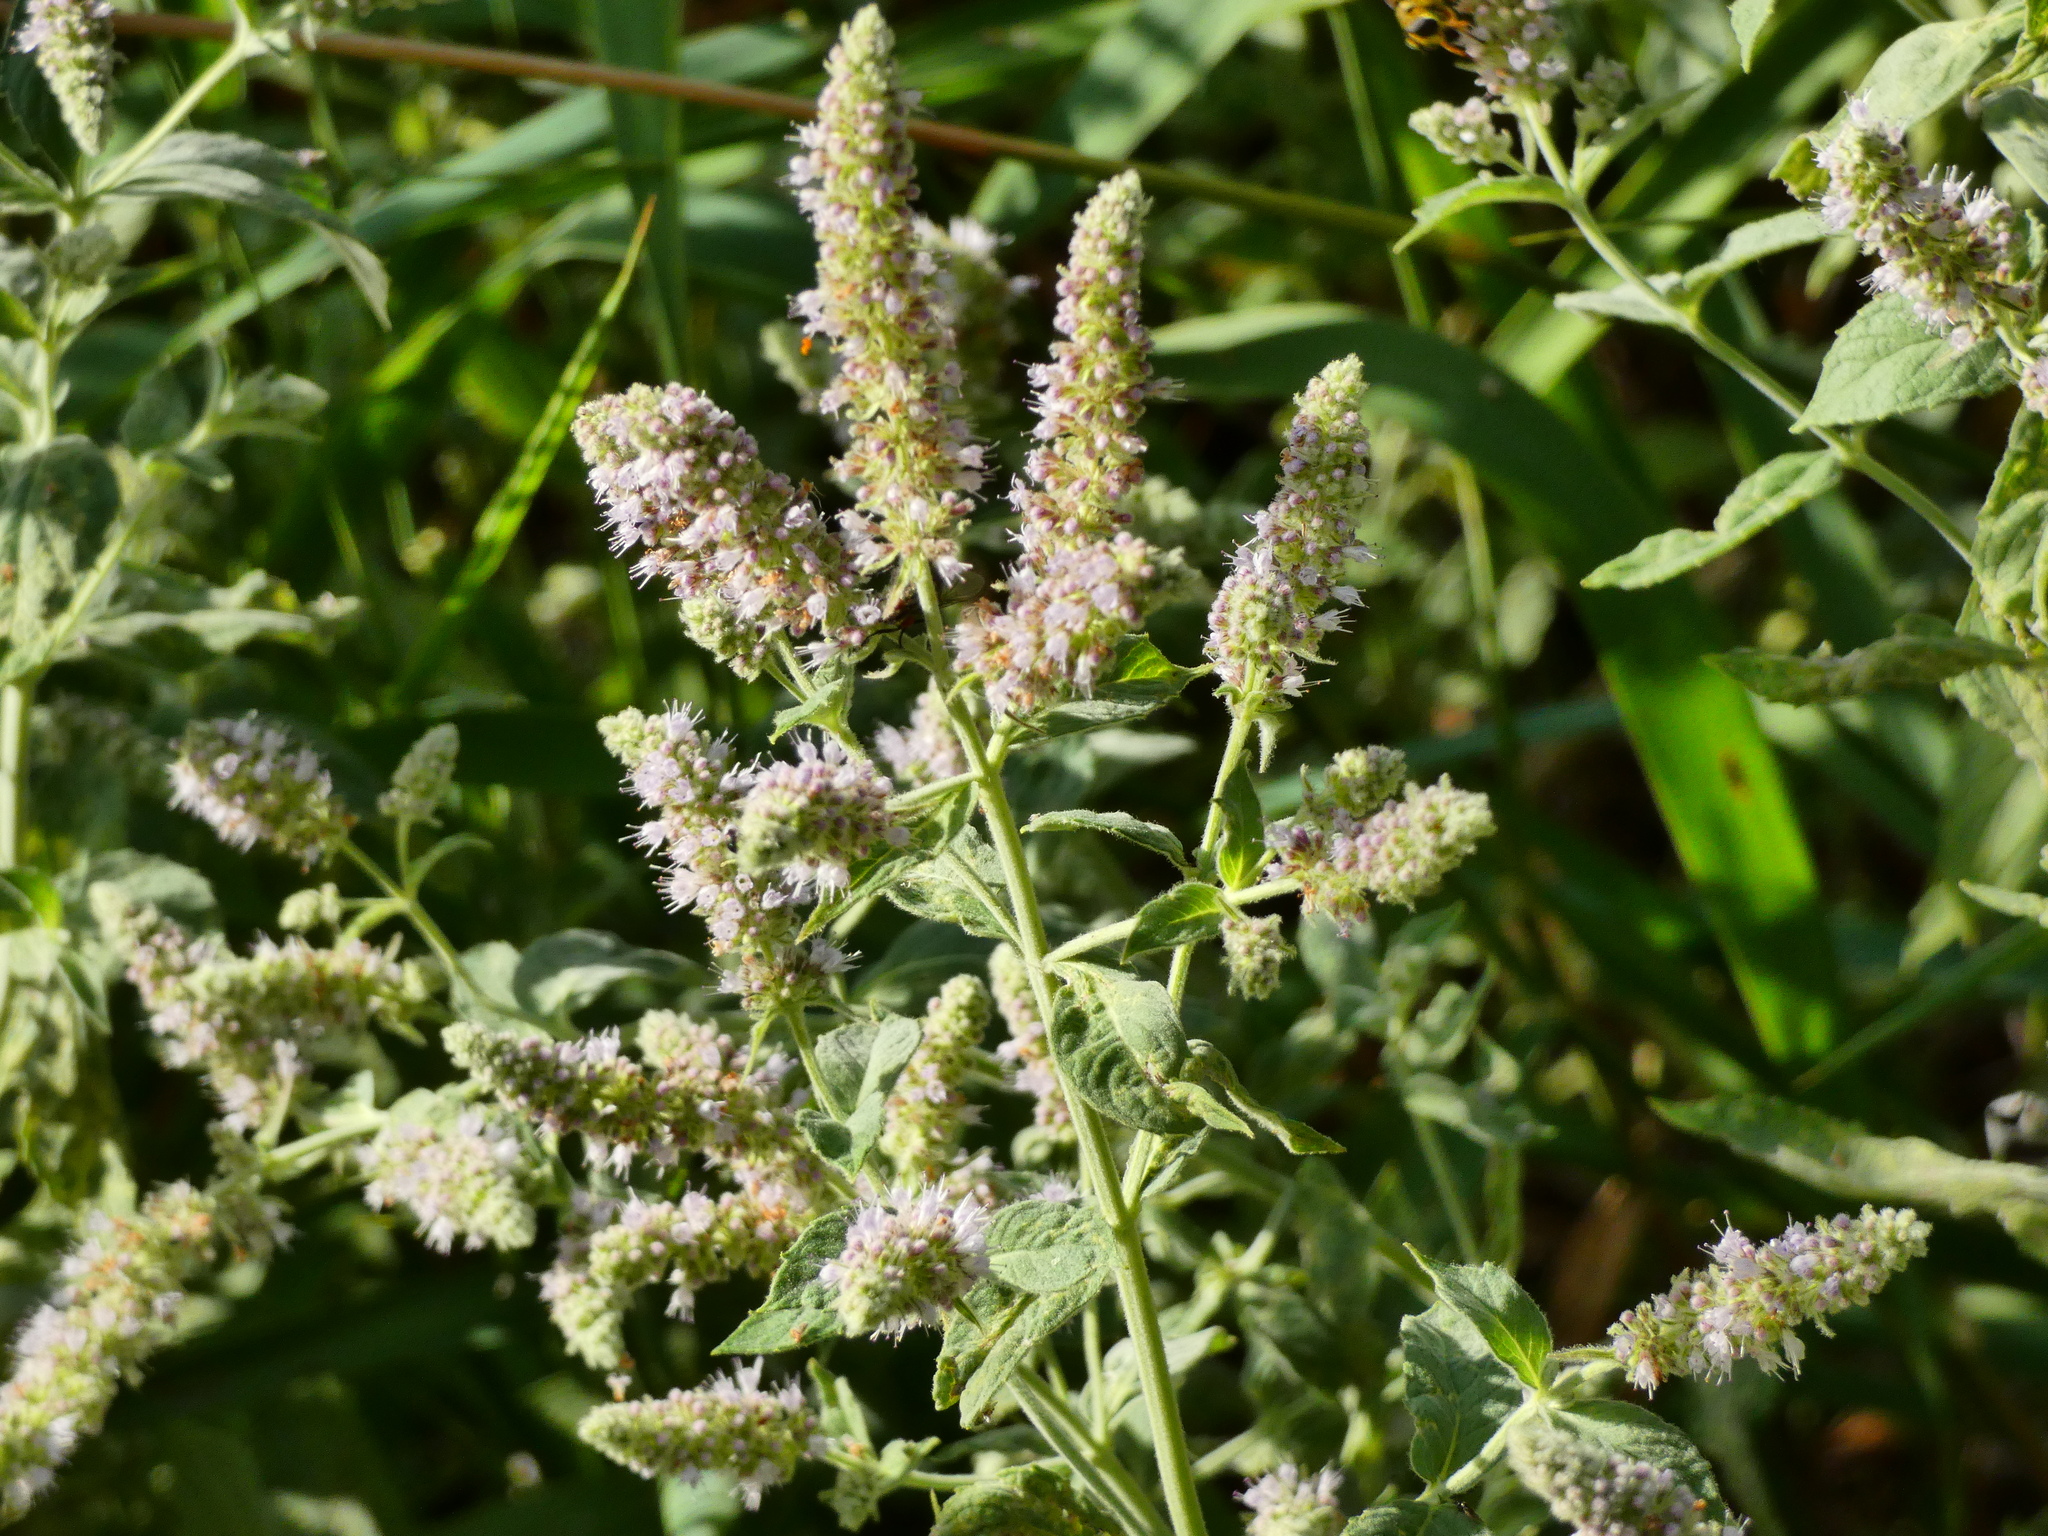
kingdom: Plantae
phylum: Tracheophyta
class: Magnoliopsida
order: Lamiales
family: Lamiaceae
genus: Mentha
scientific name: Mentha longifolia
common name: Horse mint
